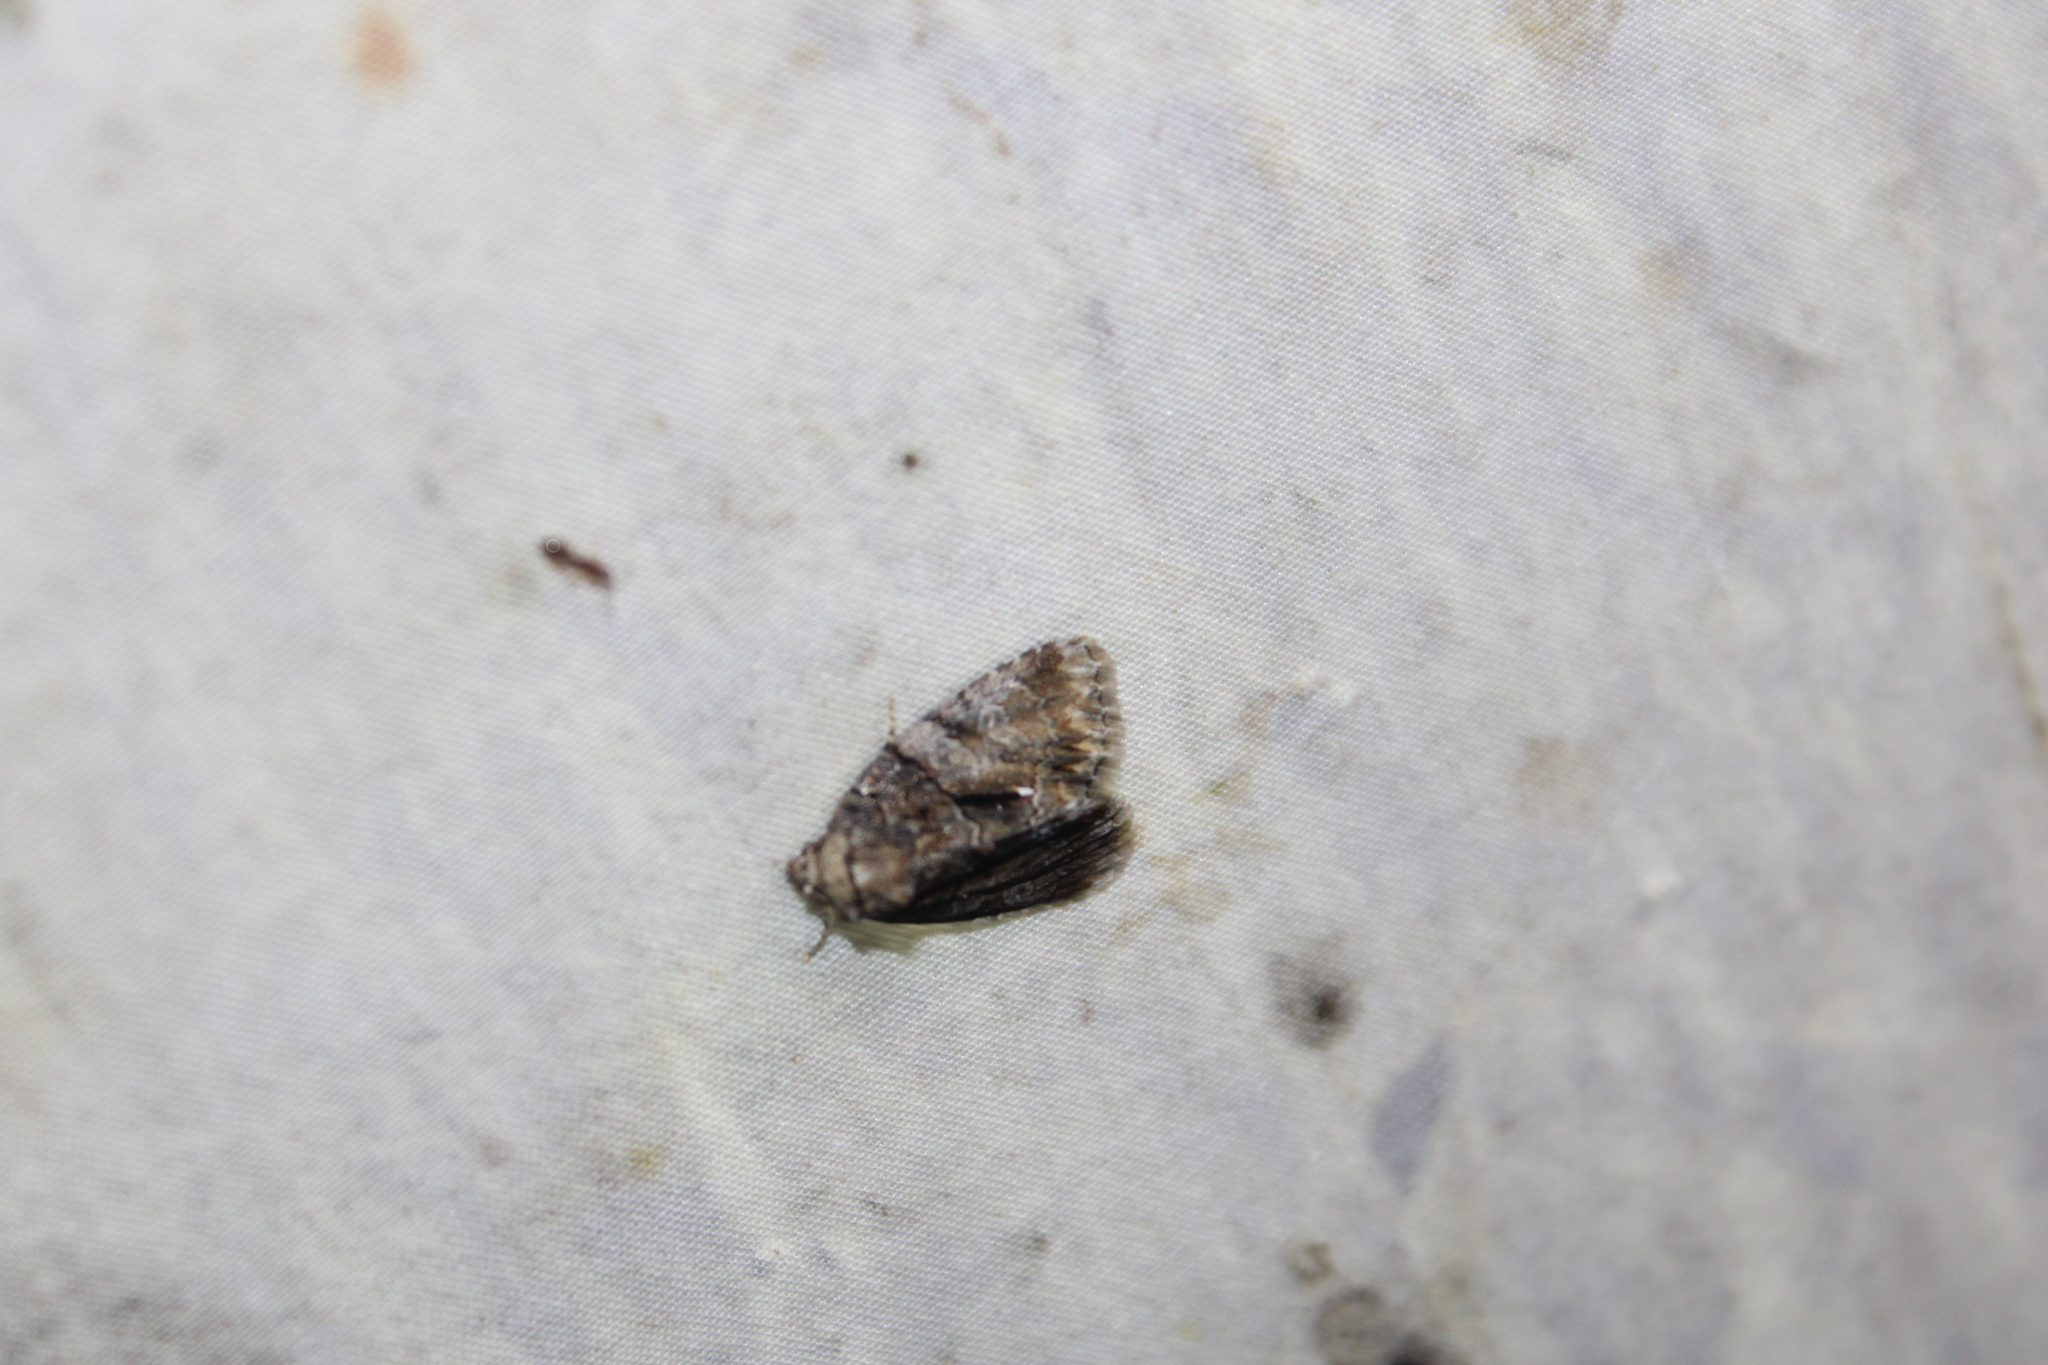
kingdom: Animalia
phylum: Arthropoda
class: Insecta
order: Lepidoptera
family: Noctuidae
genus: Chytonix
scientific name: Chytonix palliatricula
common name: Cloaked marvel
